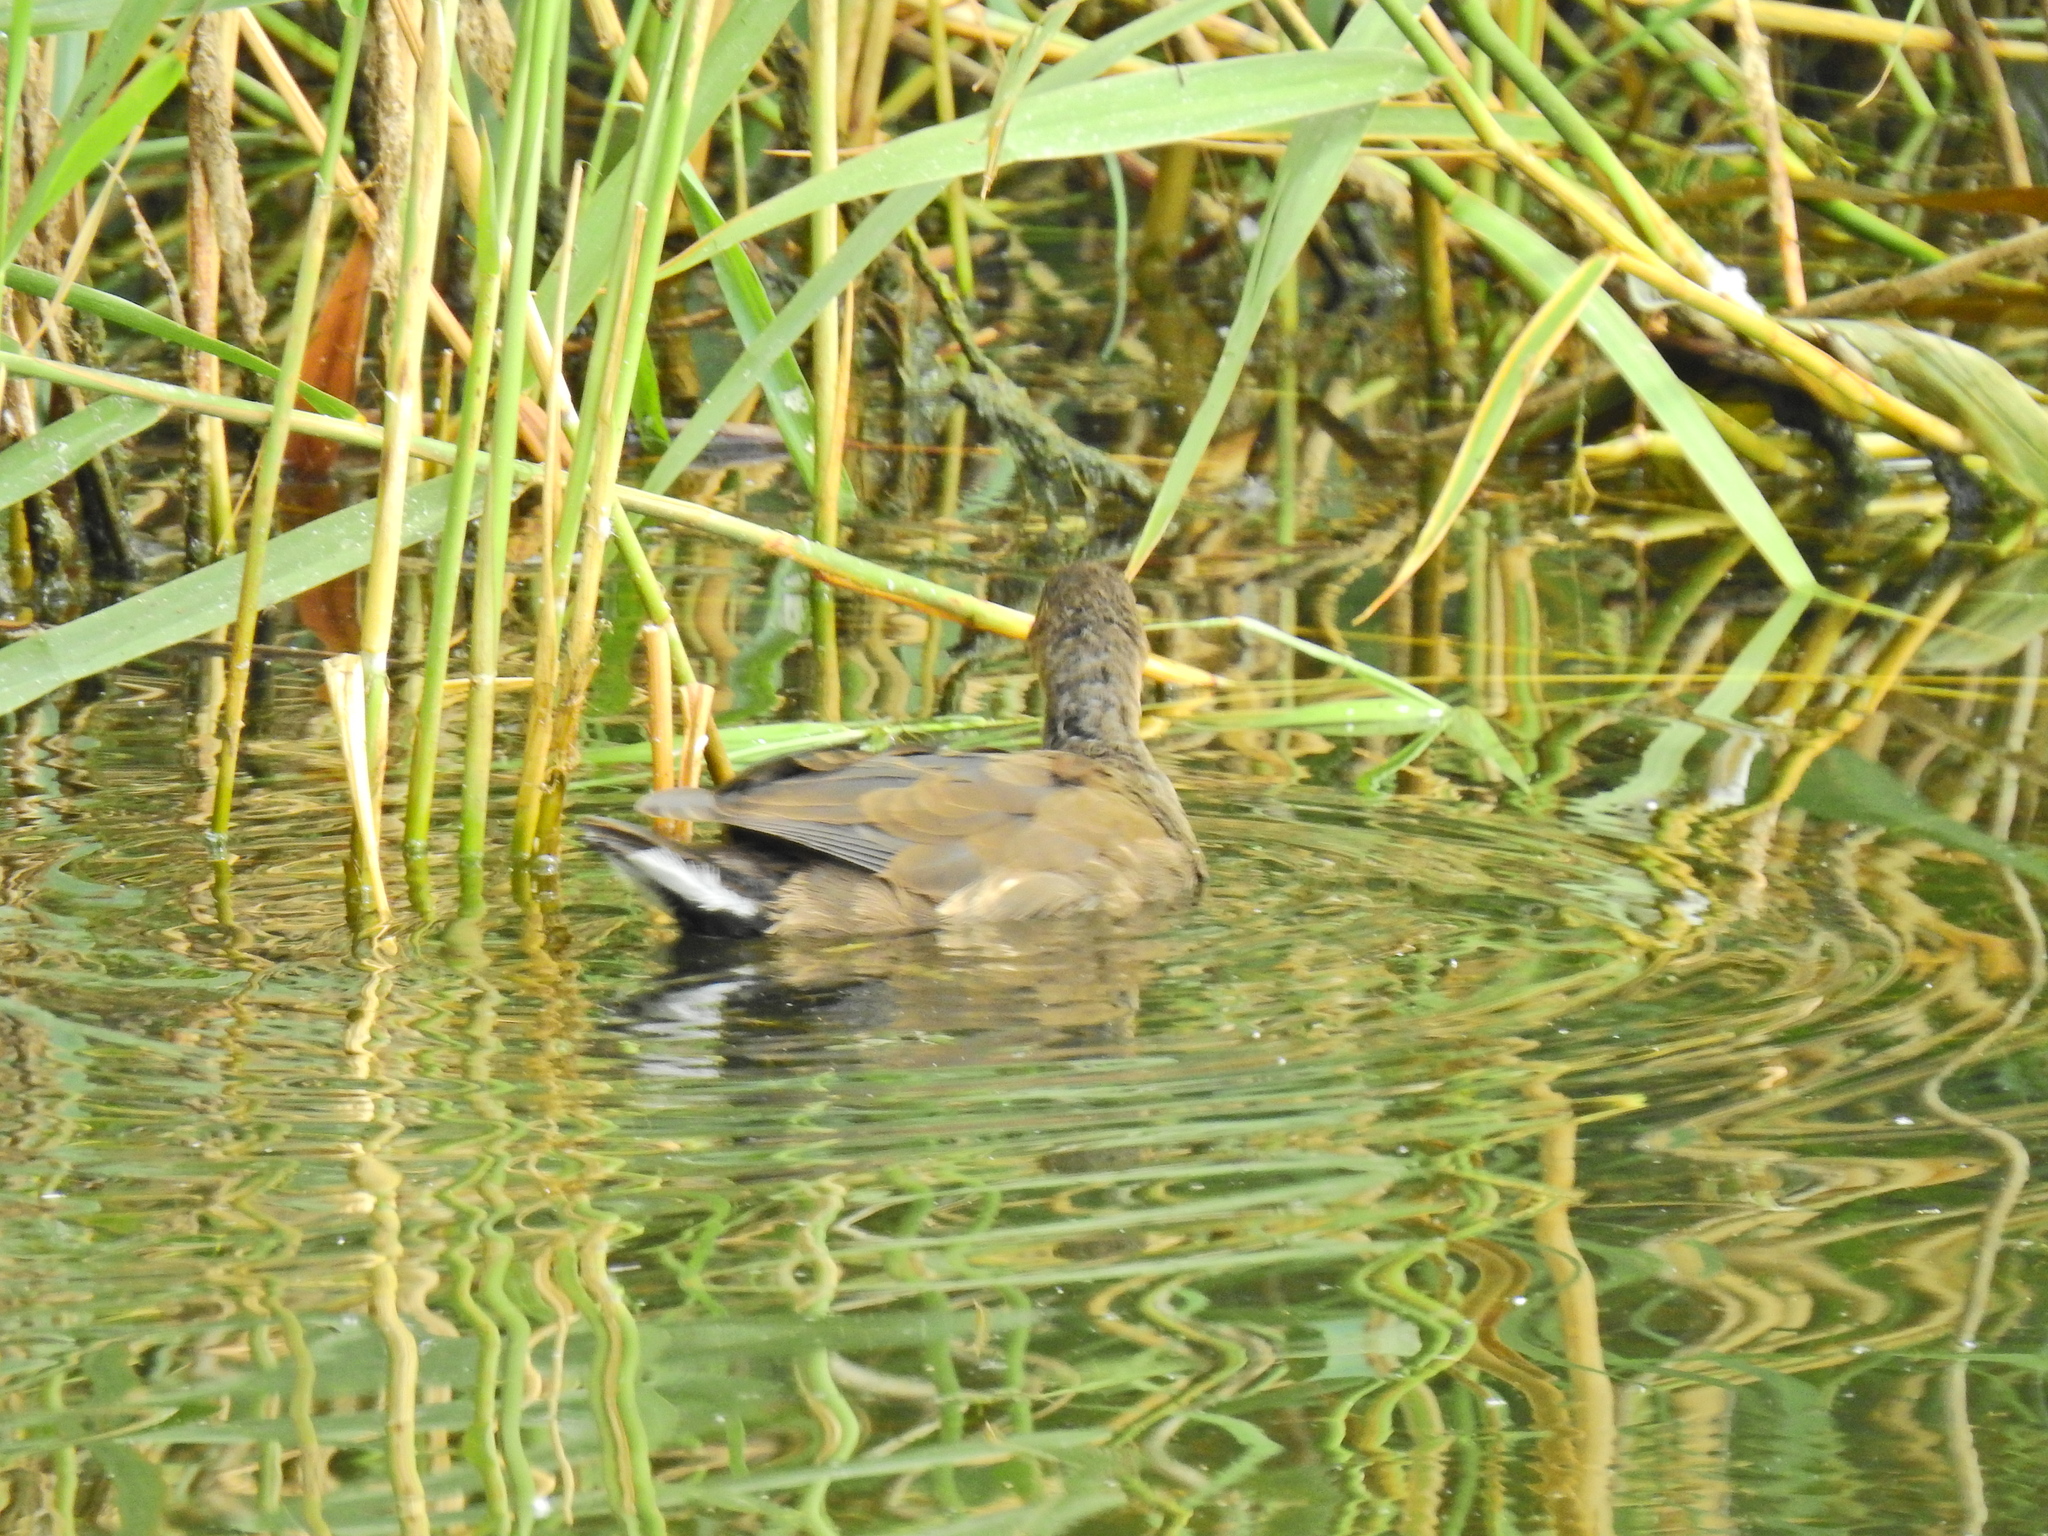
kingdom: Animalia
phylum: Chordata
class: Aves
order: Gruiformes
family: Rallidae
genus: Gallinula
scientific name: Gallinula chloropus
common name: Common moorhen
